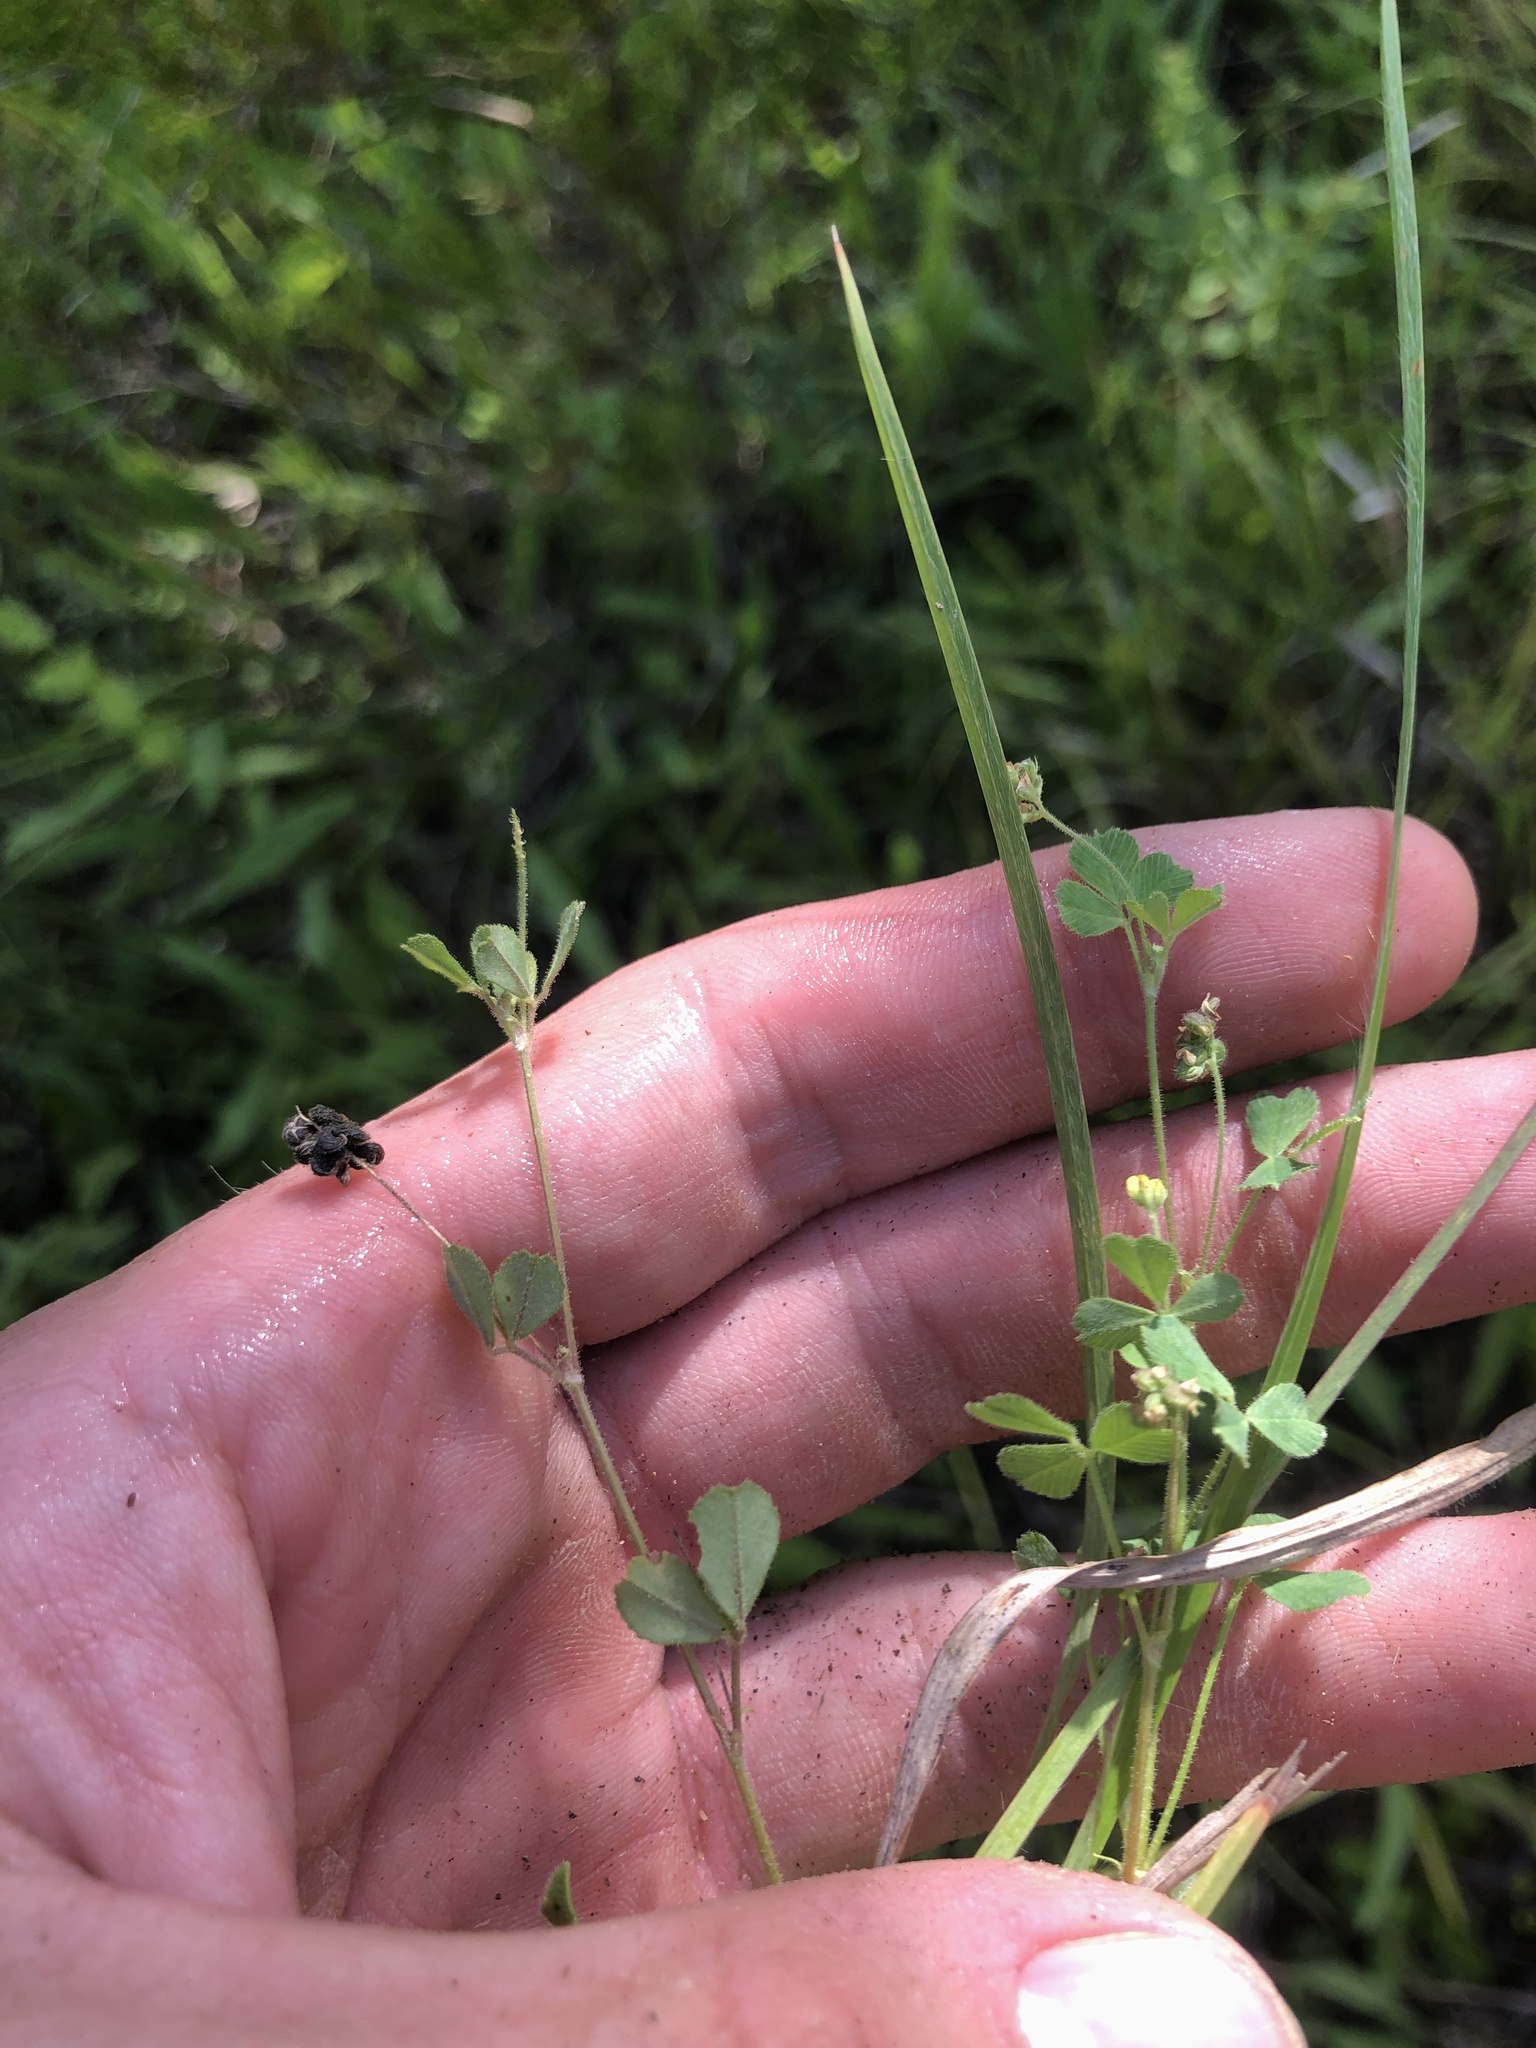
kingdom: Plantae
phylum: Tracheophyta
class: Magnoliopsida
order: Fabales
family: Fabaceae
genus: Trifolium
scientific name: Trifolium dubium
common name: Suckling clover
